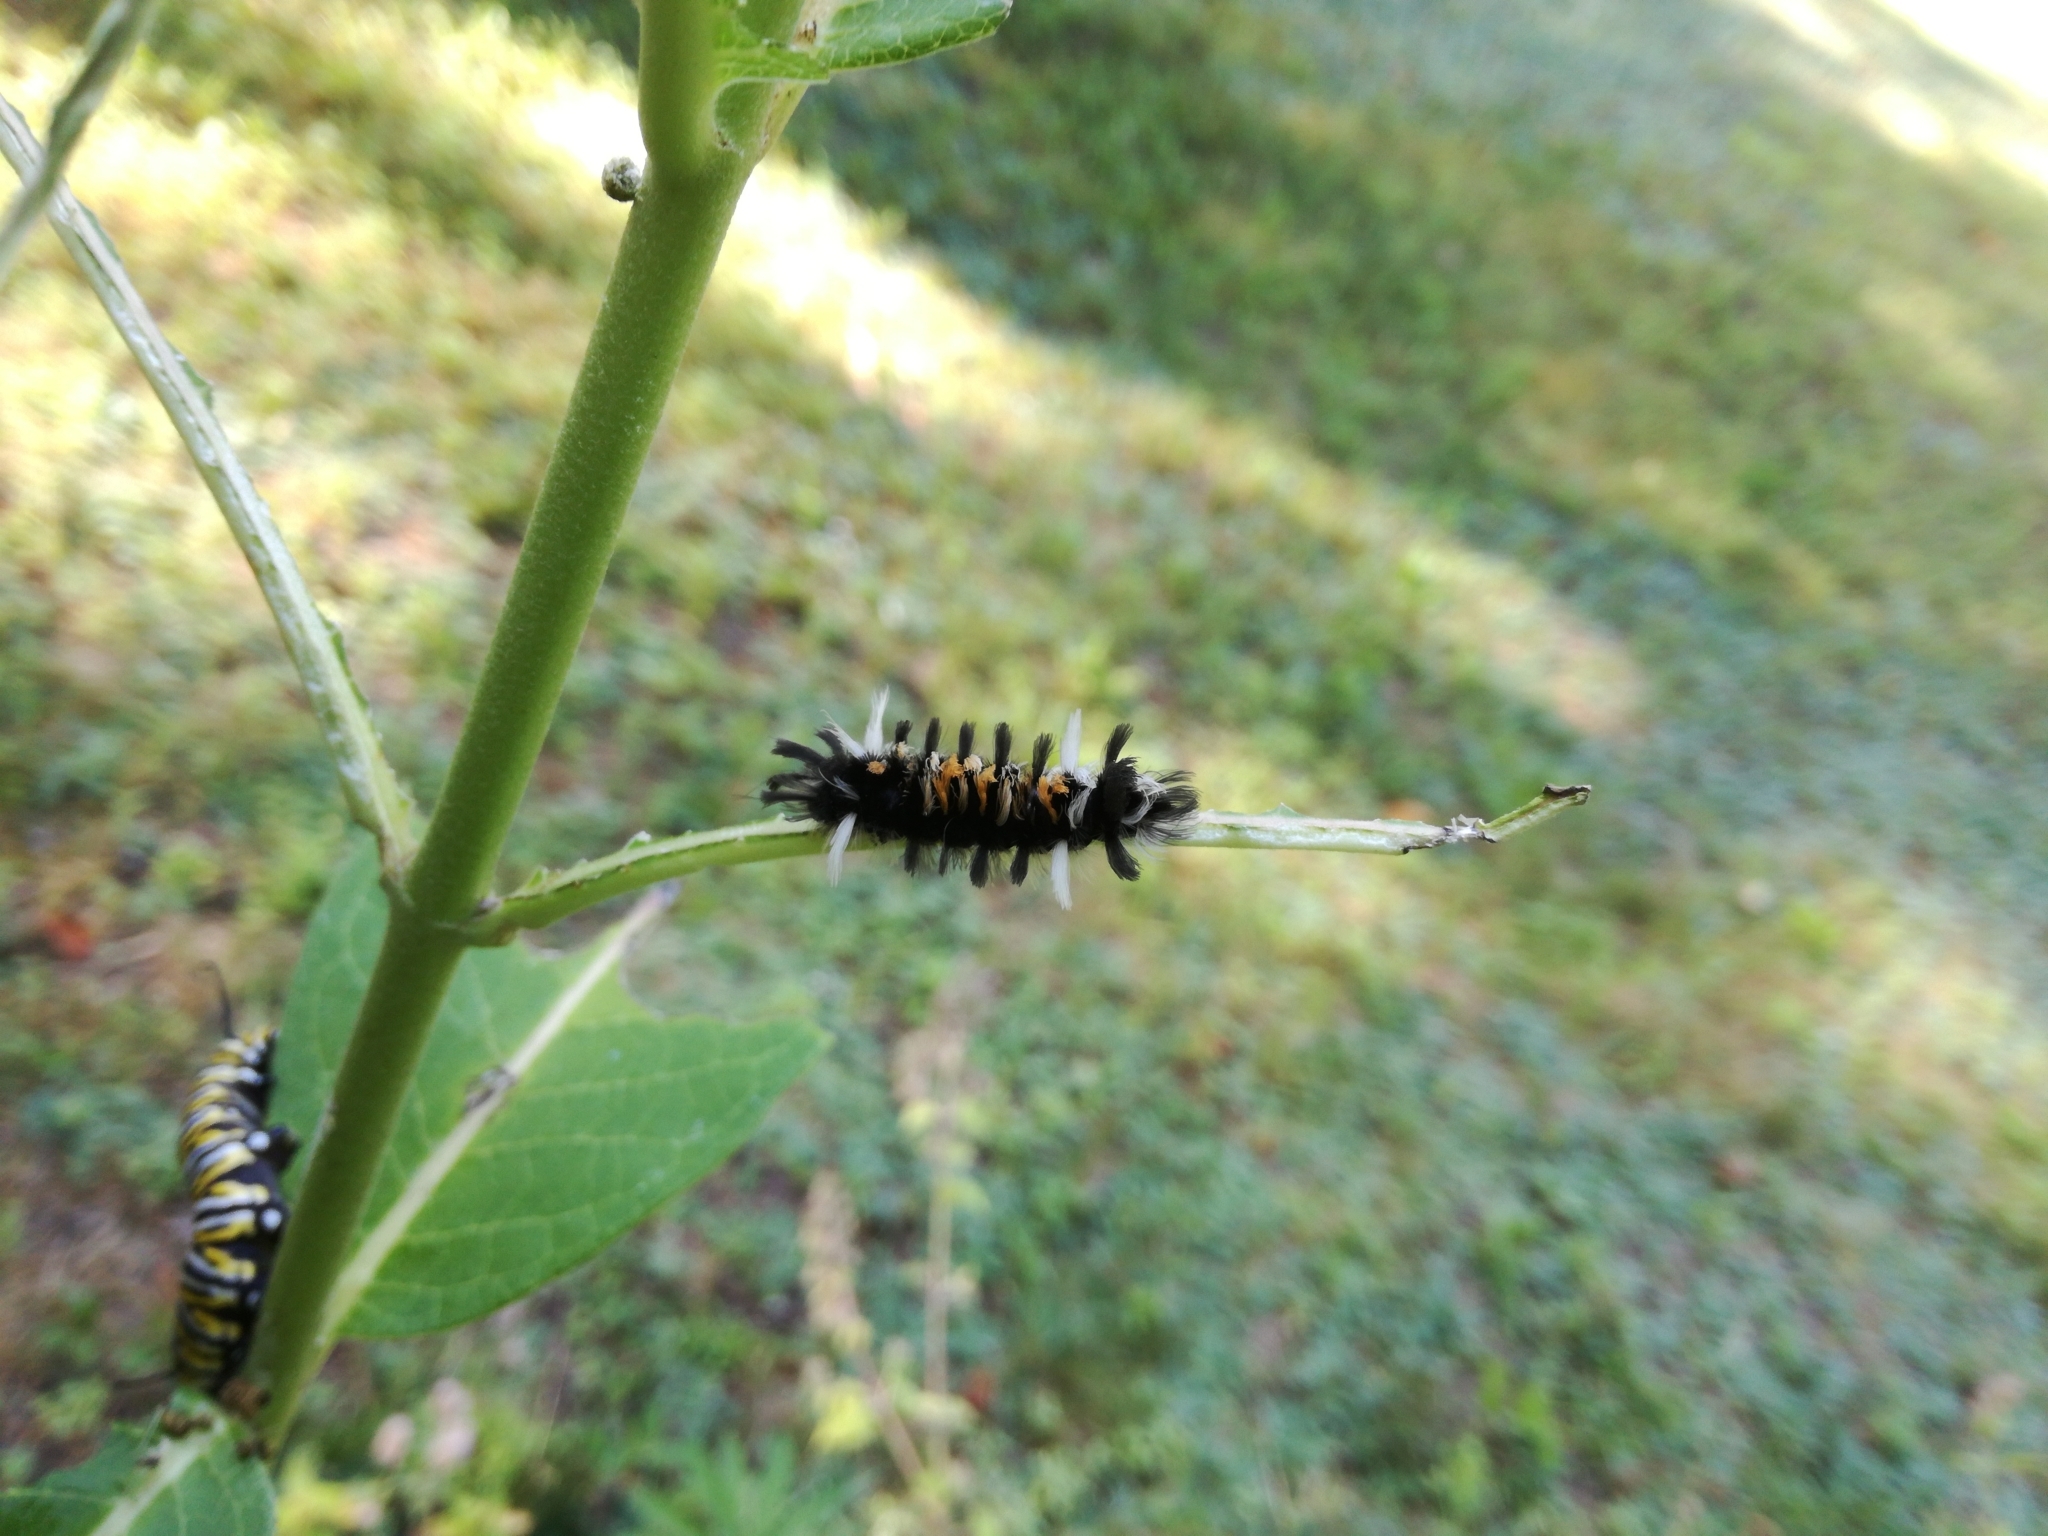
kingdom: Animalia
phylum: Arthropoda
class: Insecta
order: Lepidoptera
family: Erebidae
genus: Euchaetes
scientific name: Euchaetes egle
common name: Milkweed tussock moth
